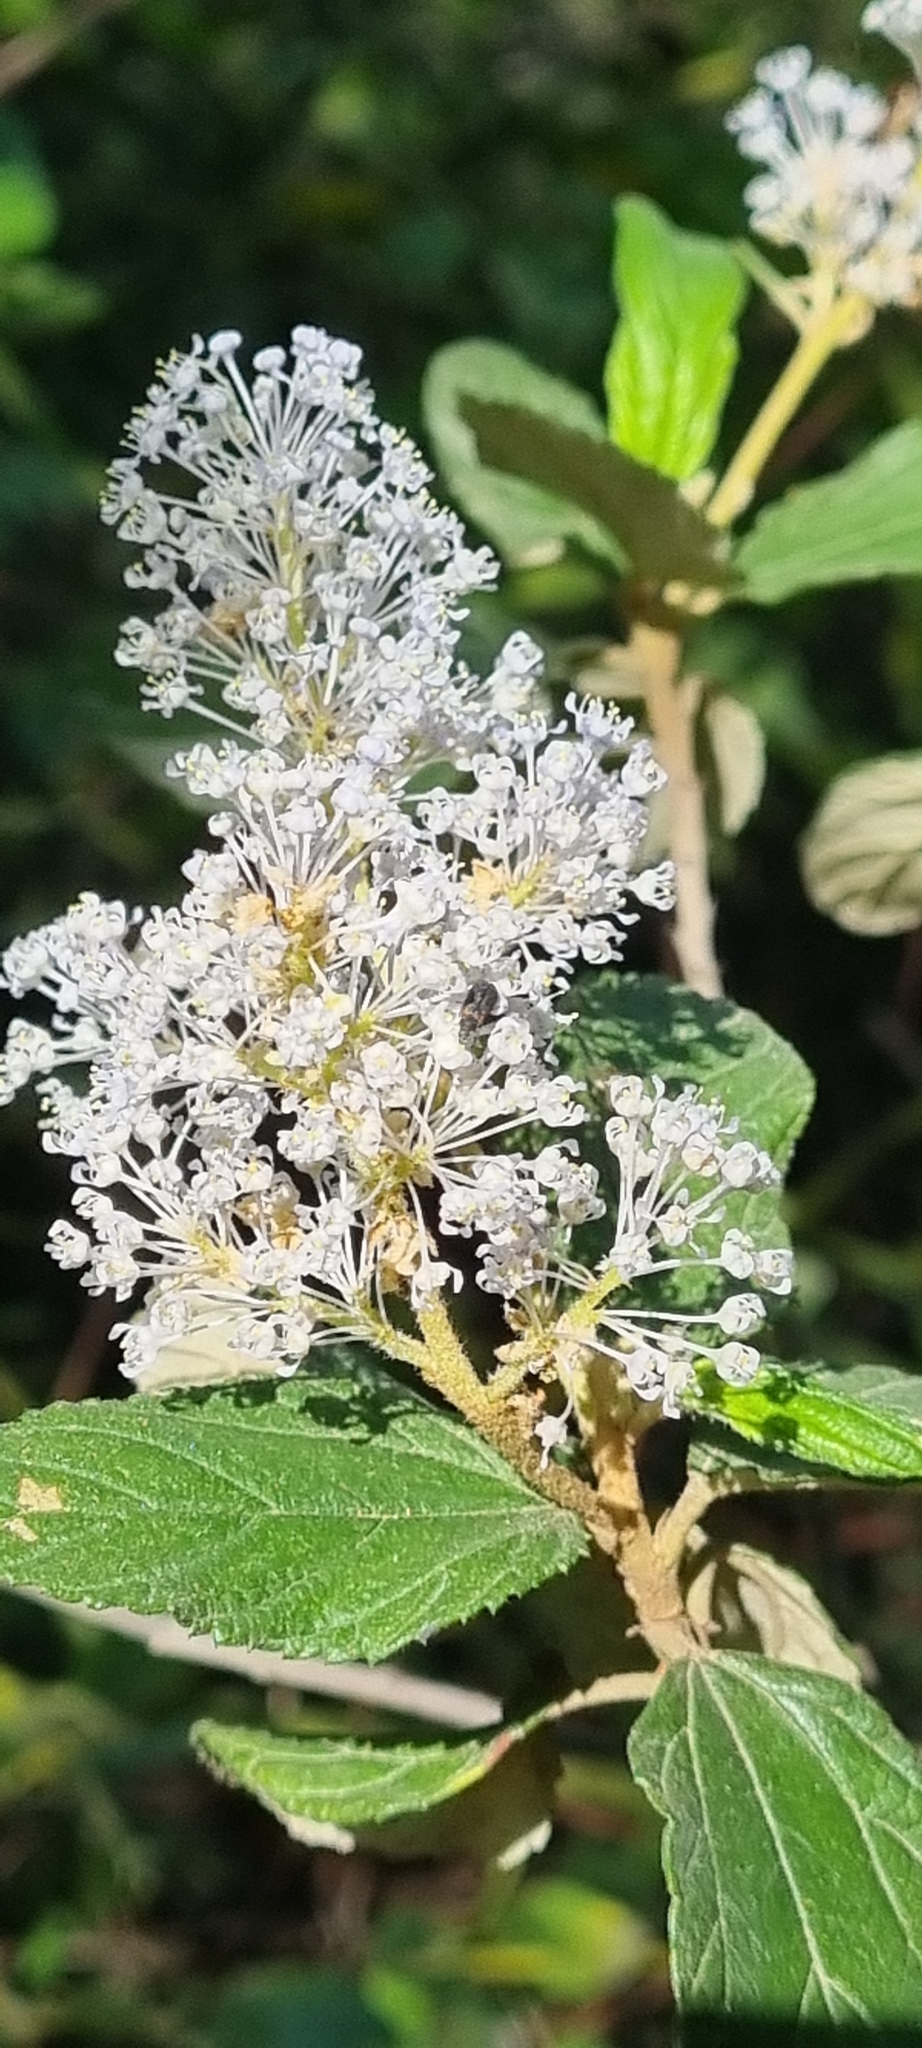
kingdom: Plantae
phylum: Tracheophyta
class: Magnoliopsida
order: Rosales
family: Rhamnaceae
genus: Ceanothus
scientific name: Ceanothus caeruleus
